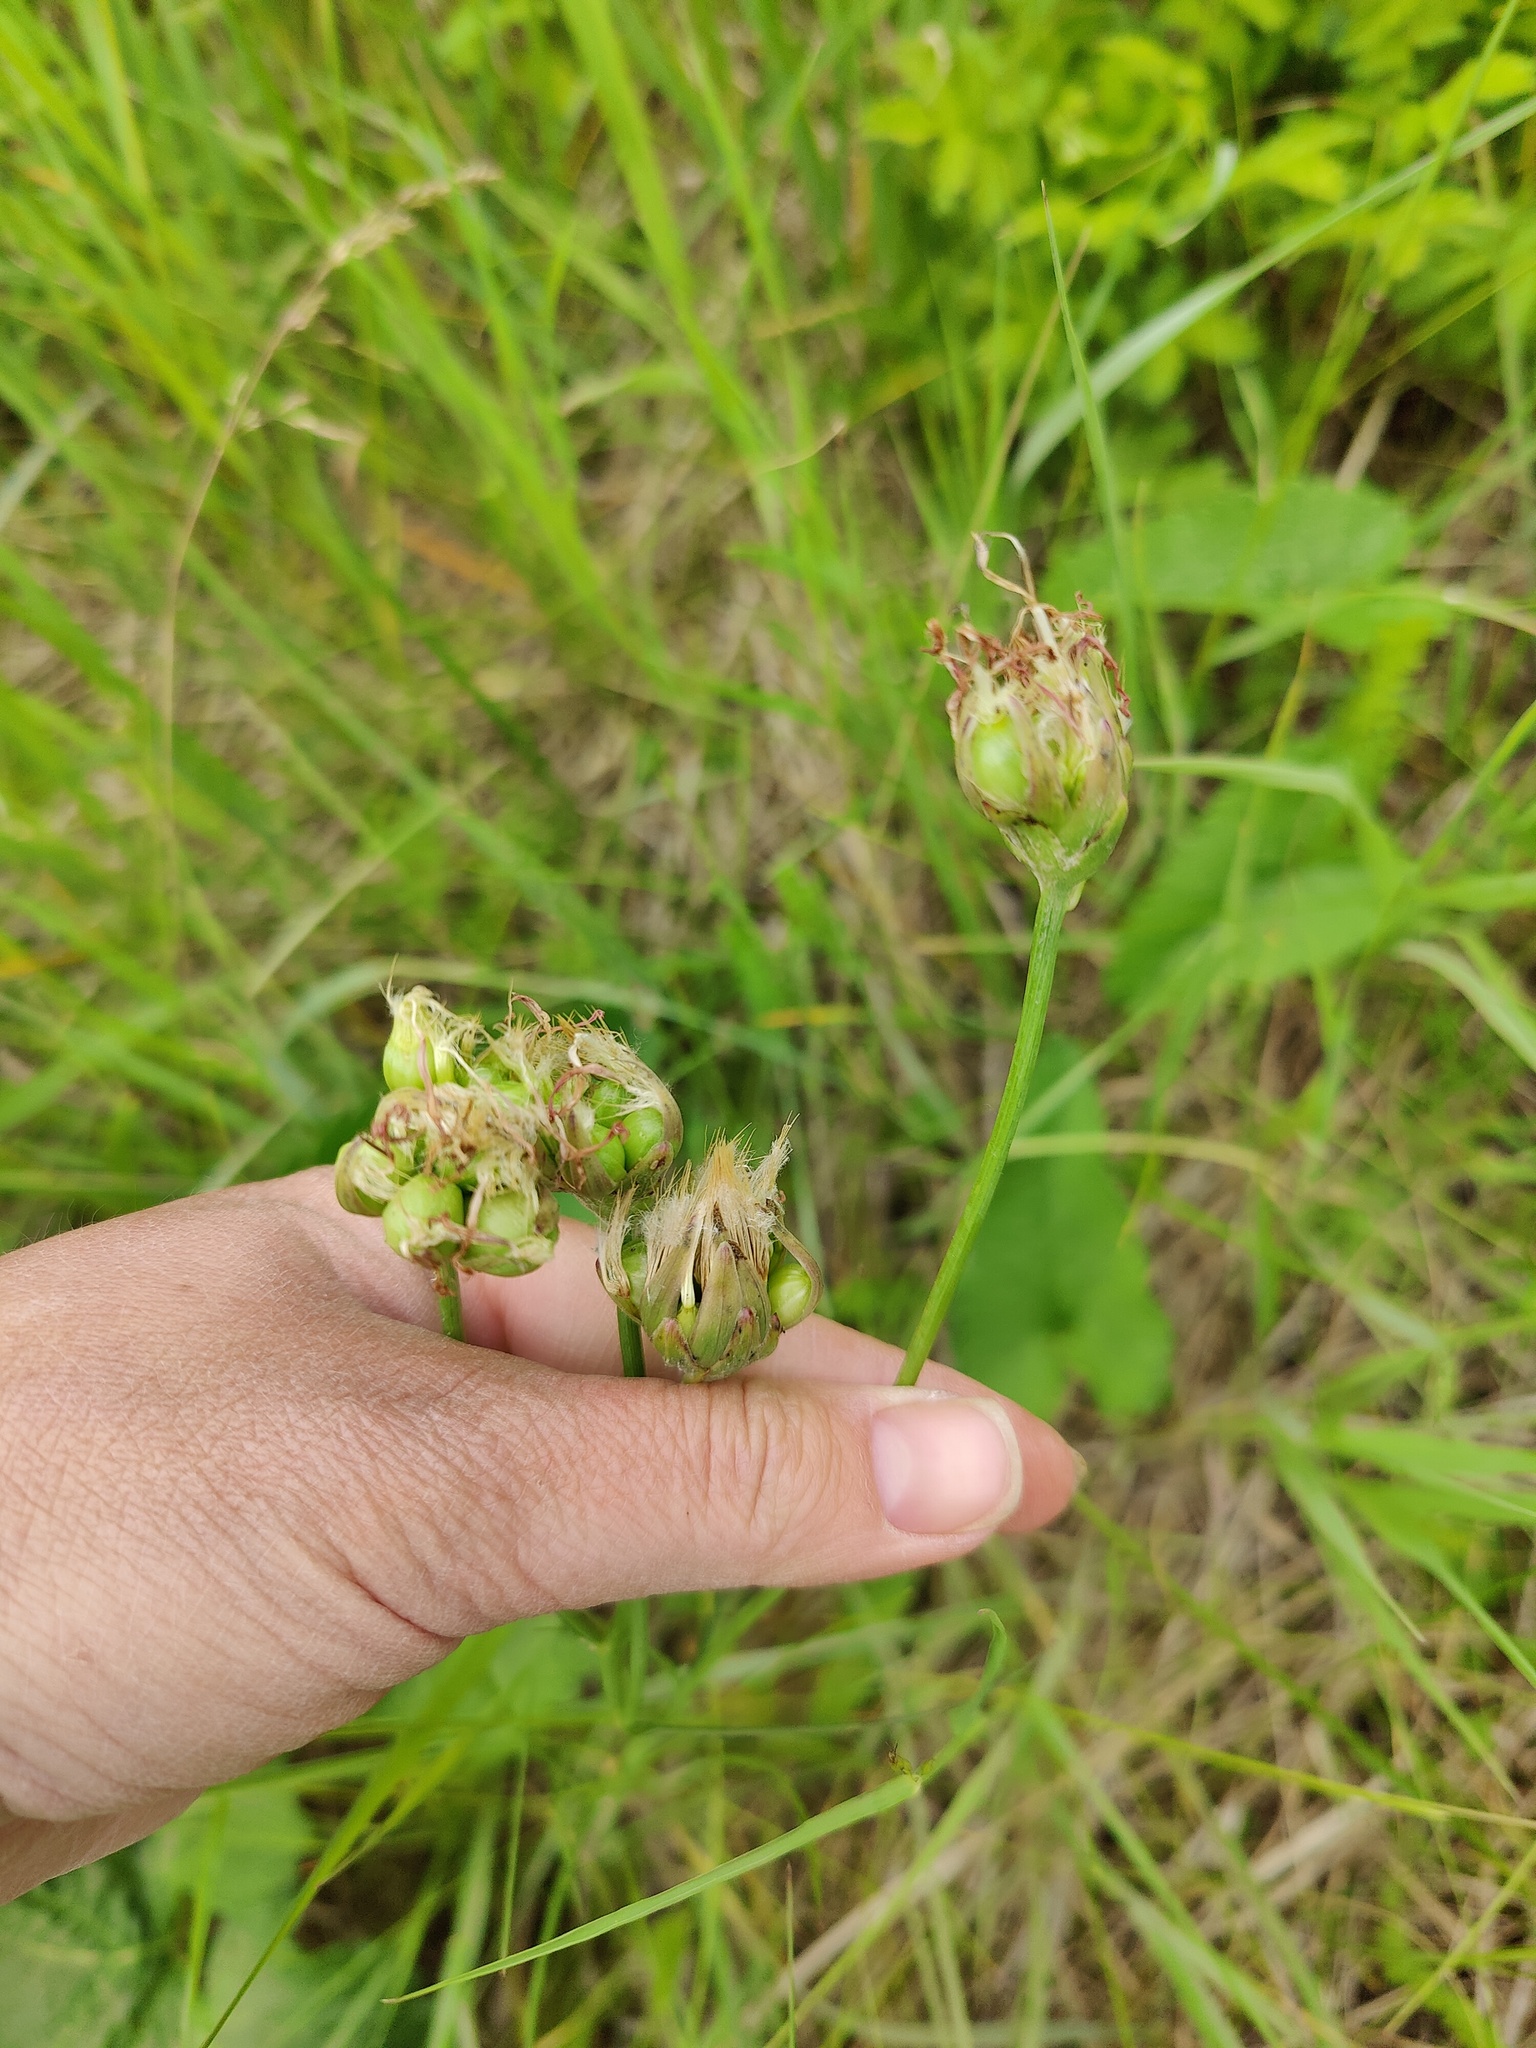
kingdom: Plantae
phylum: Tracheophyta
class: Magnoliopsida
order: Asterales
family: Asteraceae
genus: Scorzonera
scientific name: Scorzonera purpurea
